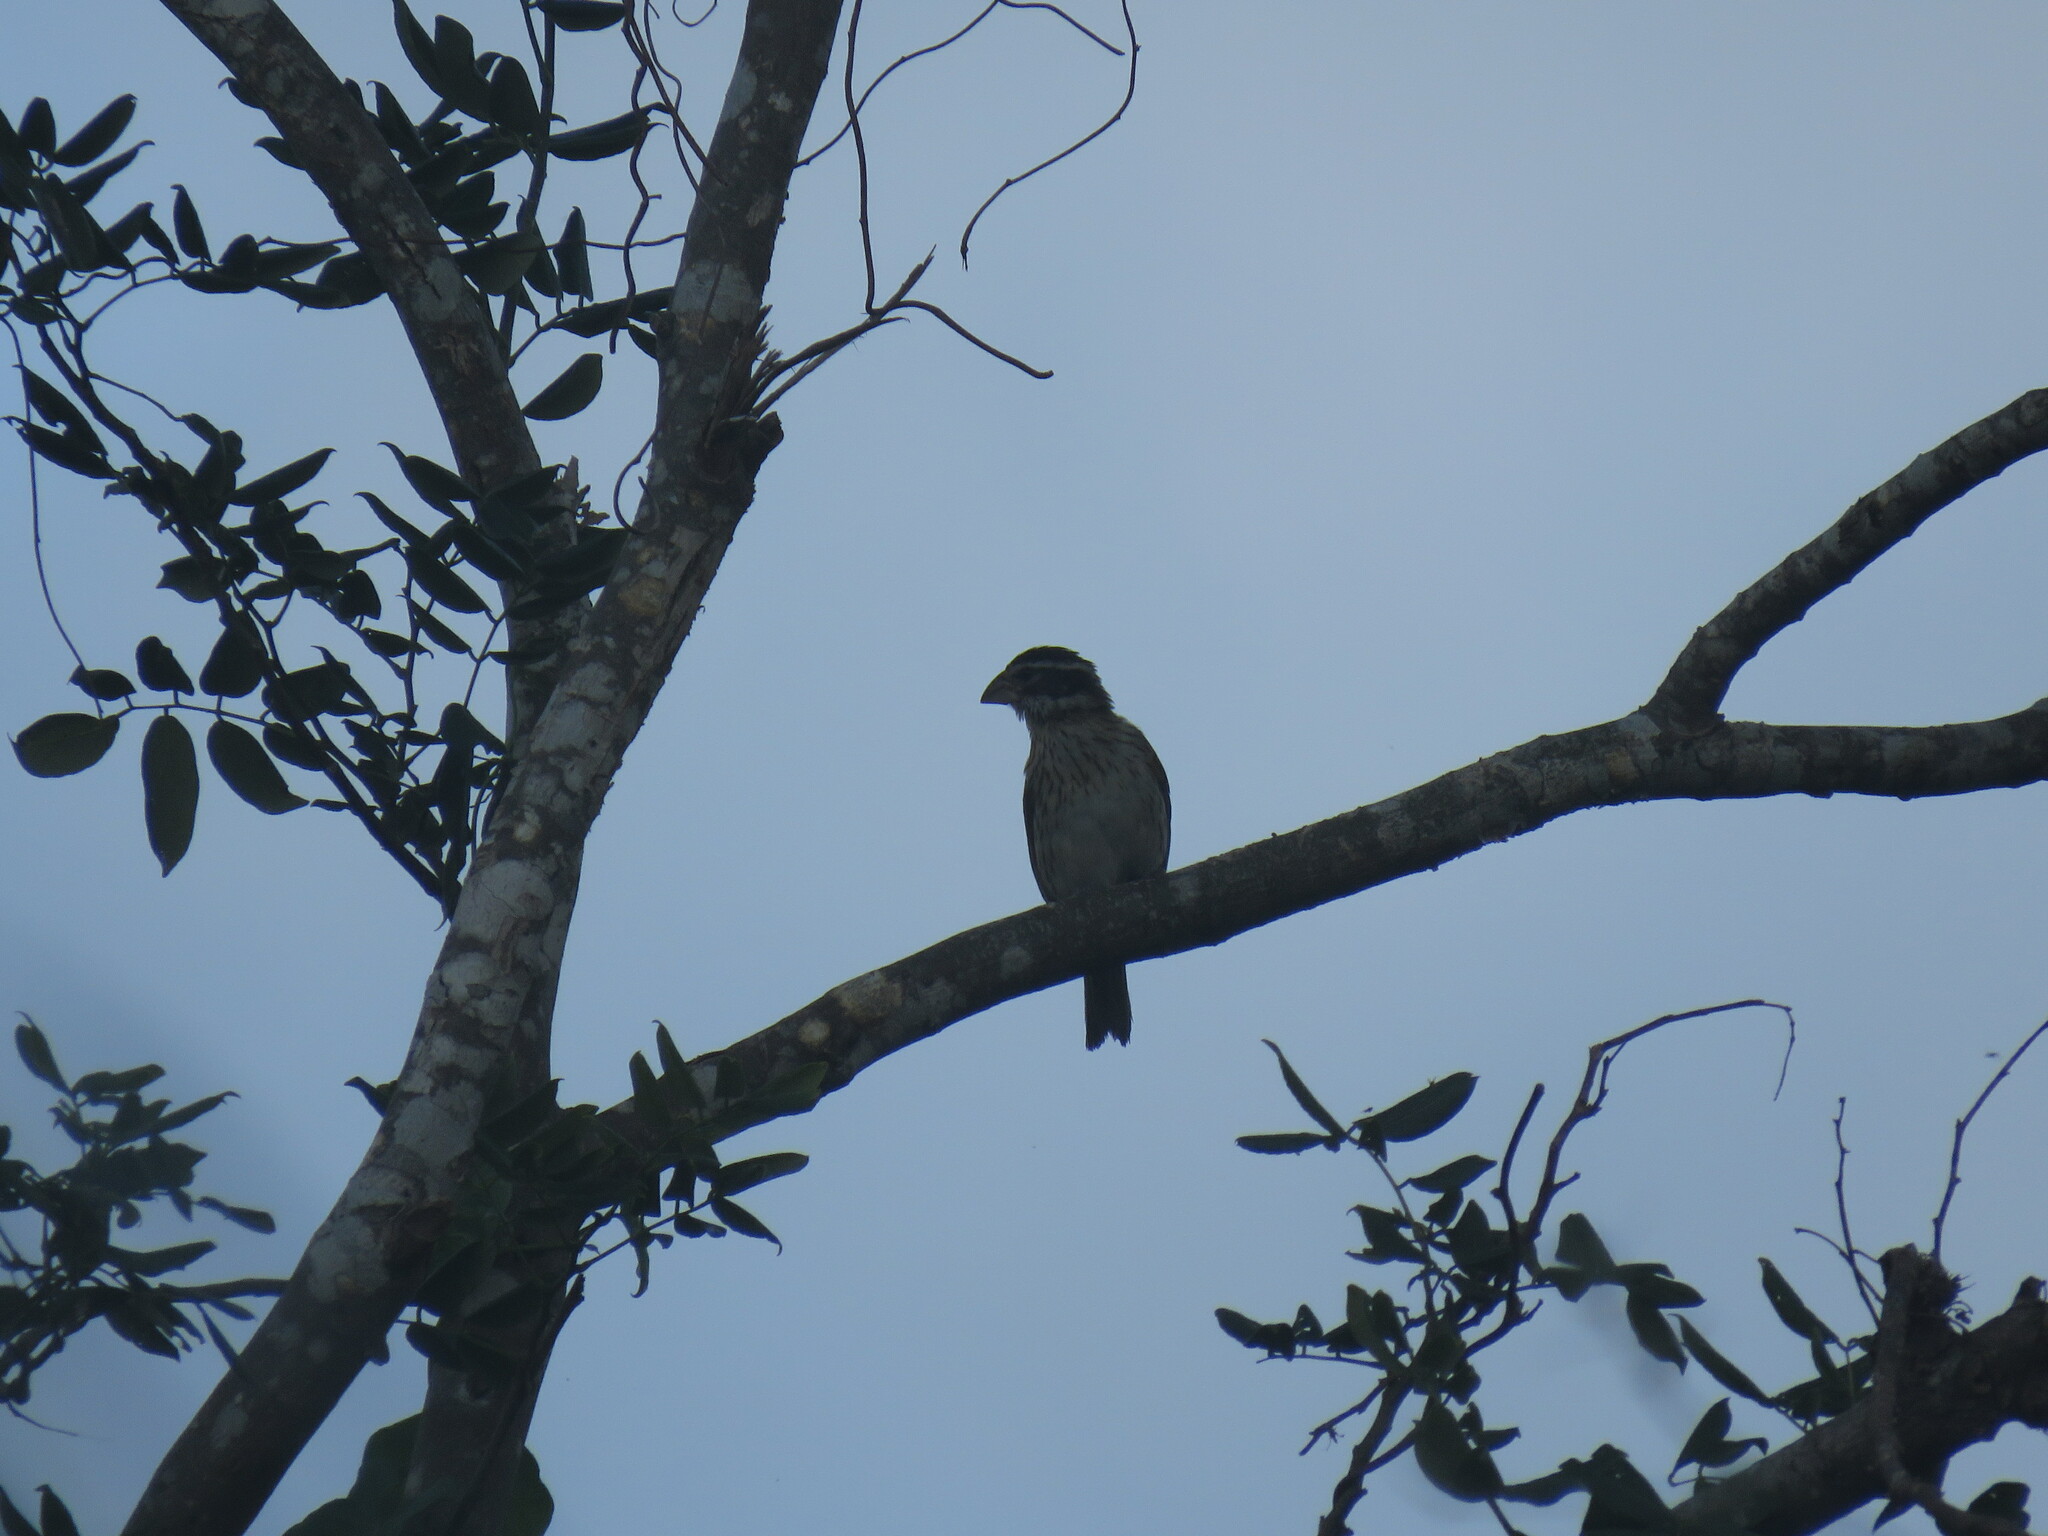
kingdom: Animalia
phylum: Chordata
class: Aves
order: Passeriformes
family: Cardinalidae
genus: Pheucticus
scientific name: Pheucticus ludovicianus
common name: Rose-breasted grosbeak
